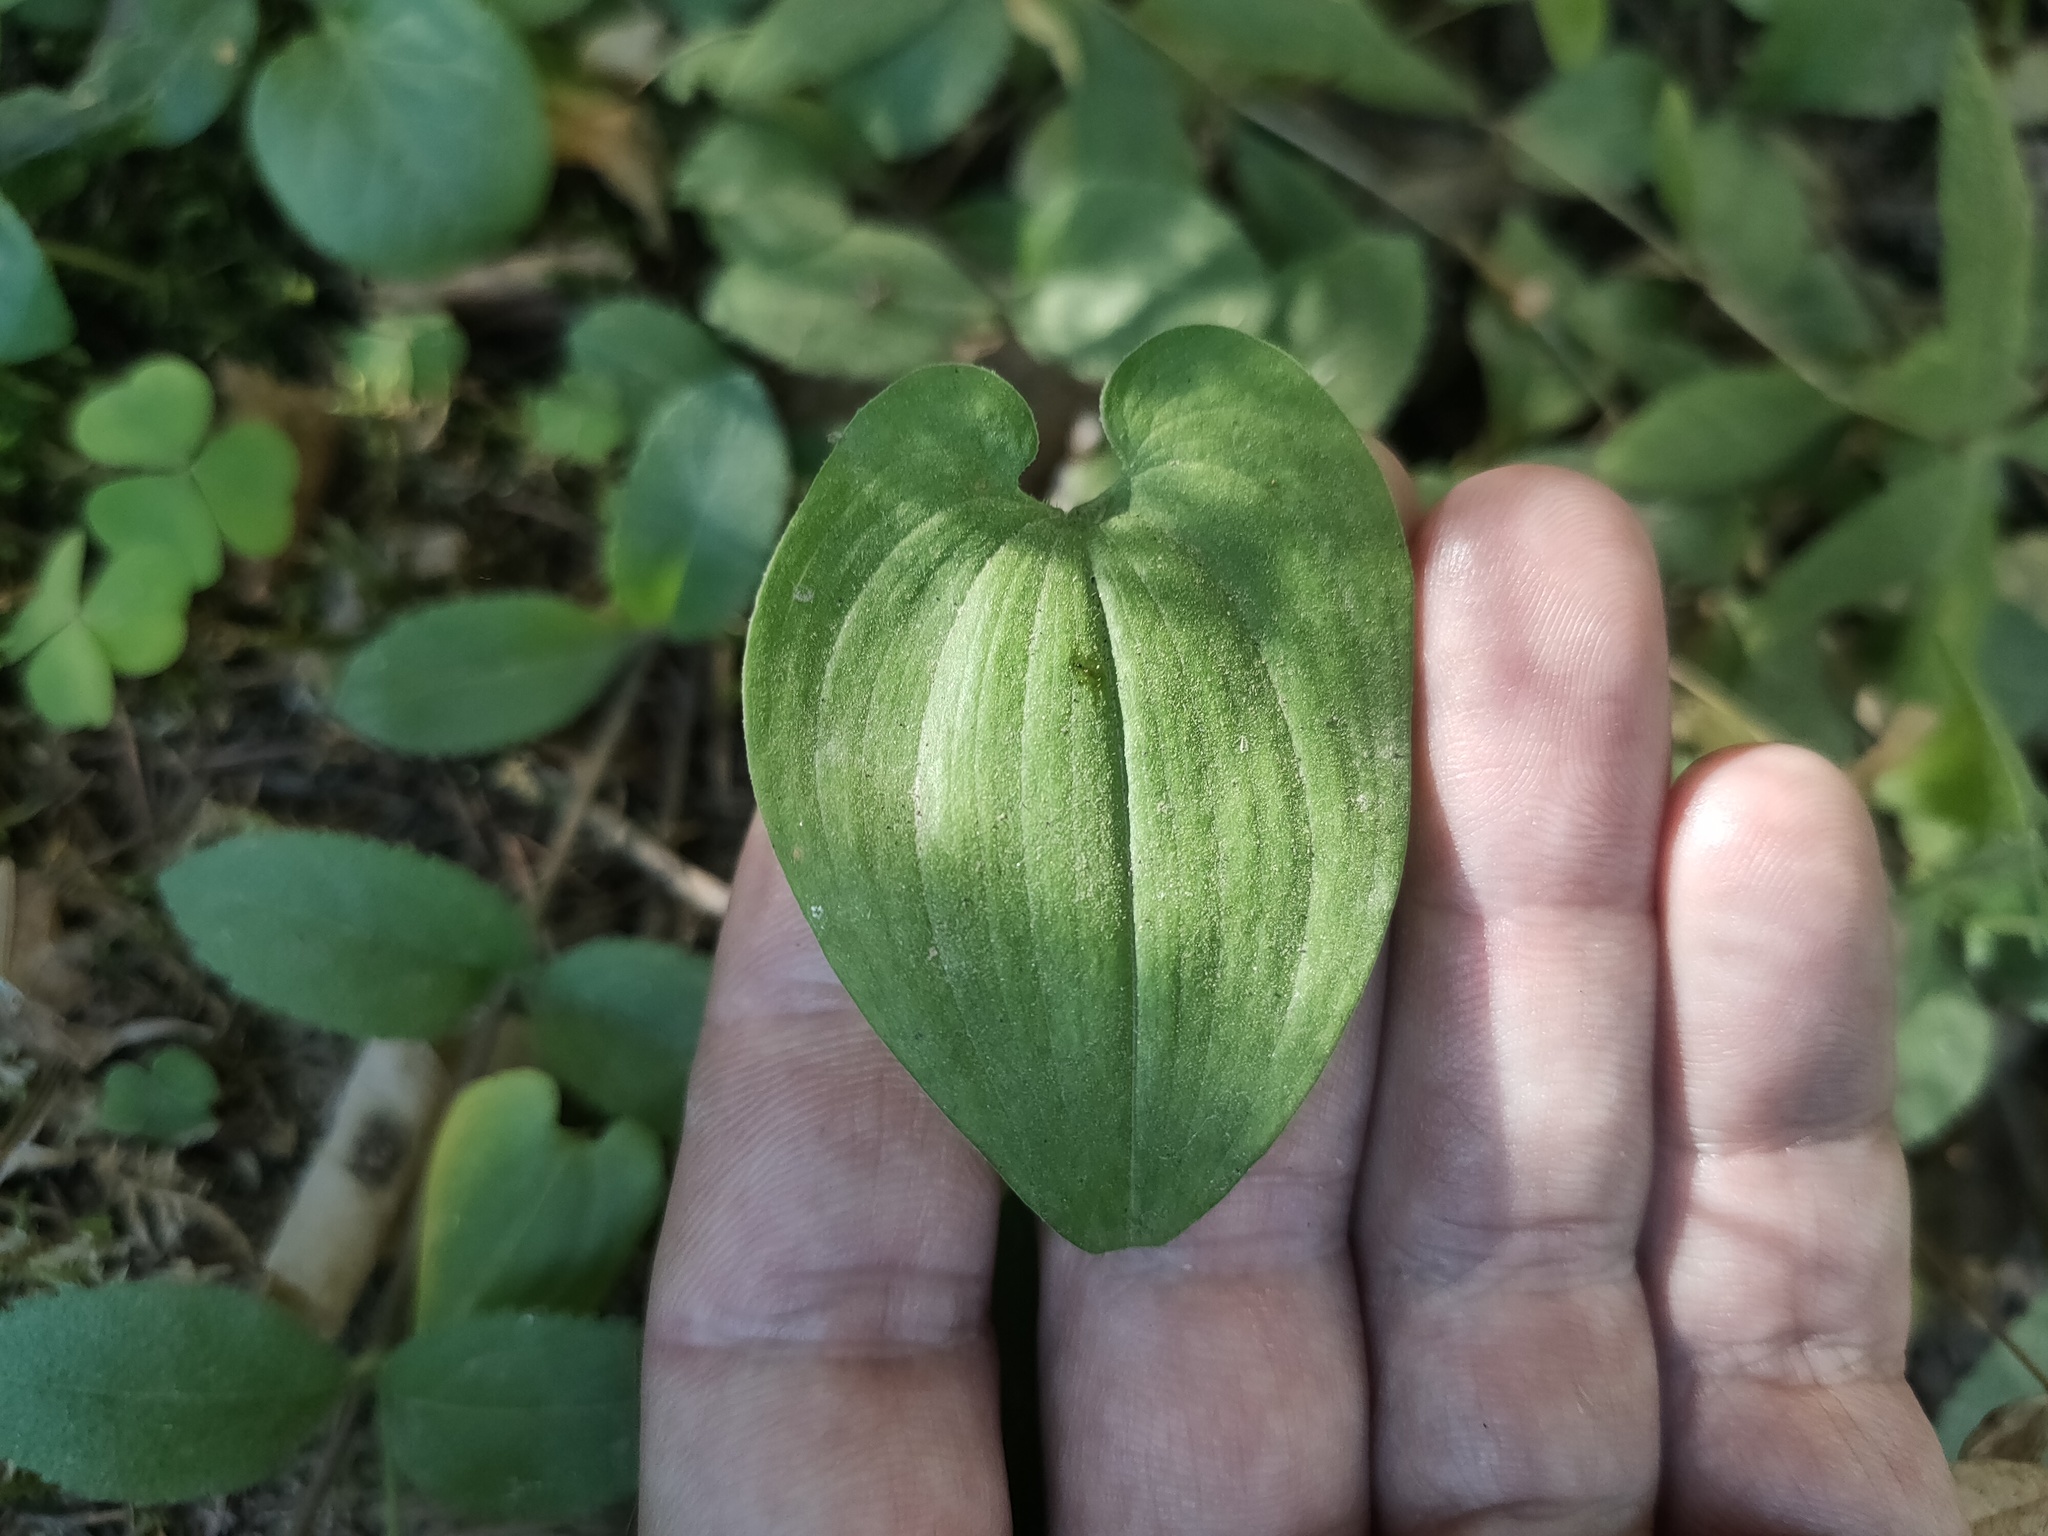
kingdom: Plantae
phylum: Tracheophyta
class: Liliopsida
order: Asparagales
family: Asparagaceae
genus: Maianthemum
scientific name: Maianthemum bifolium
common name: May lily
